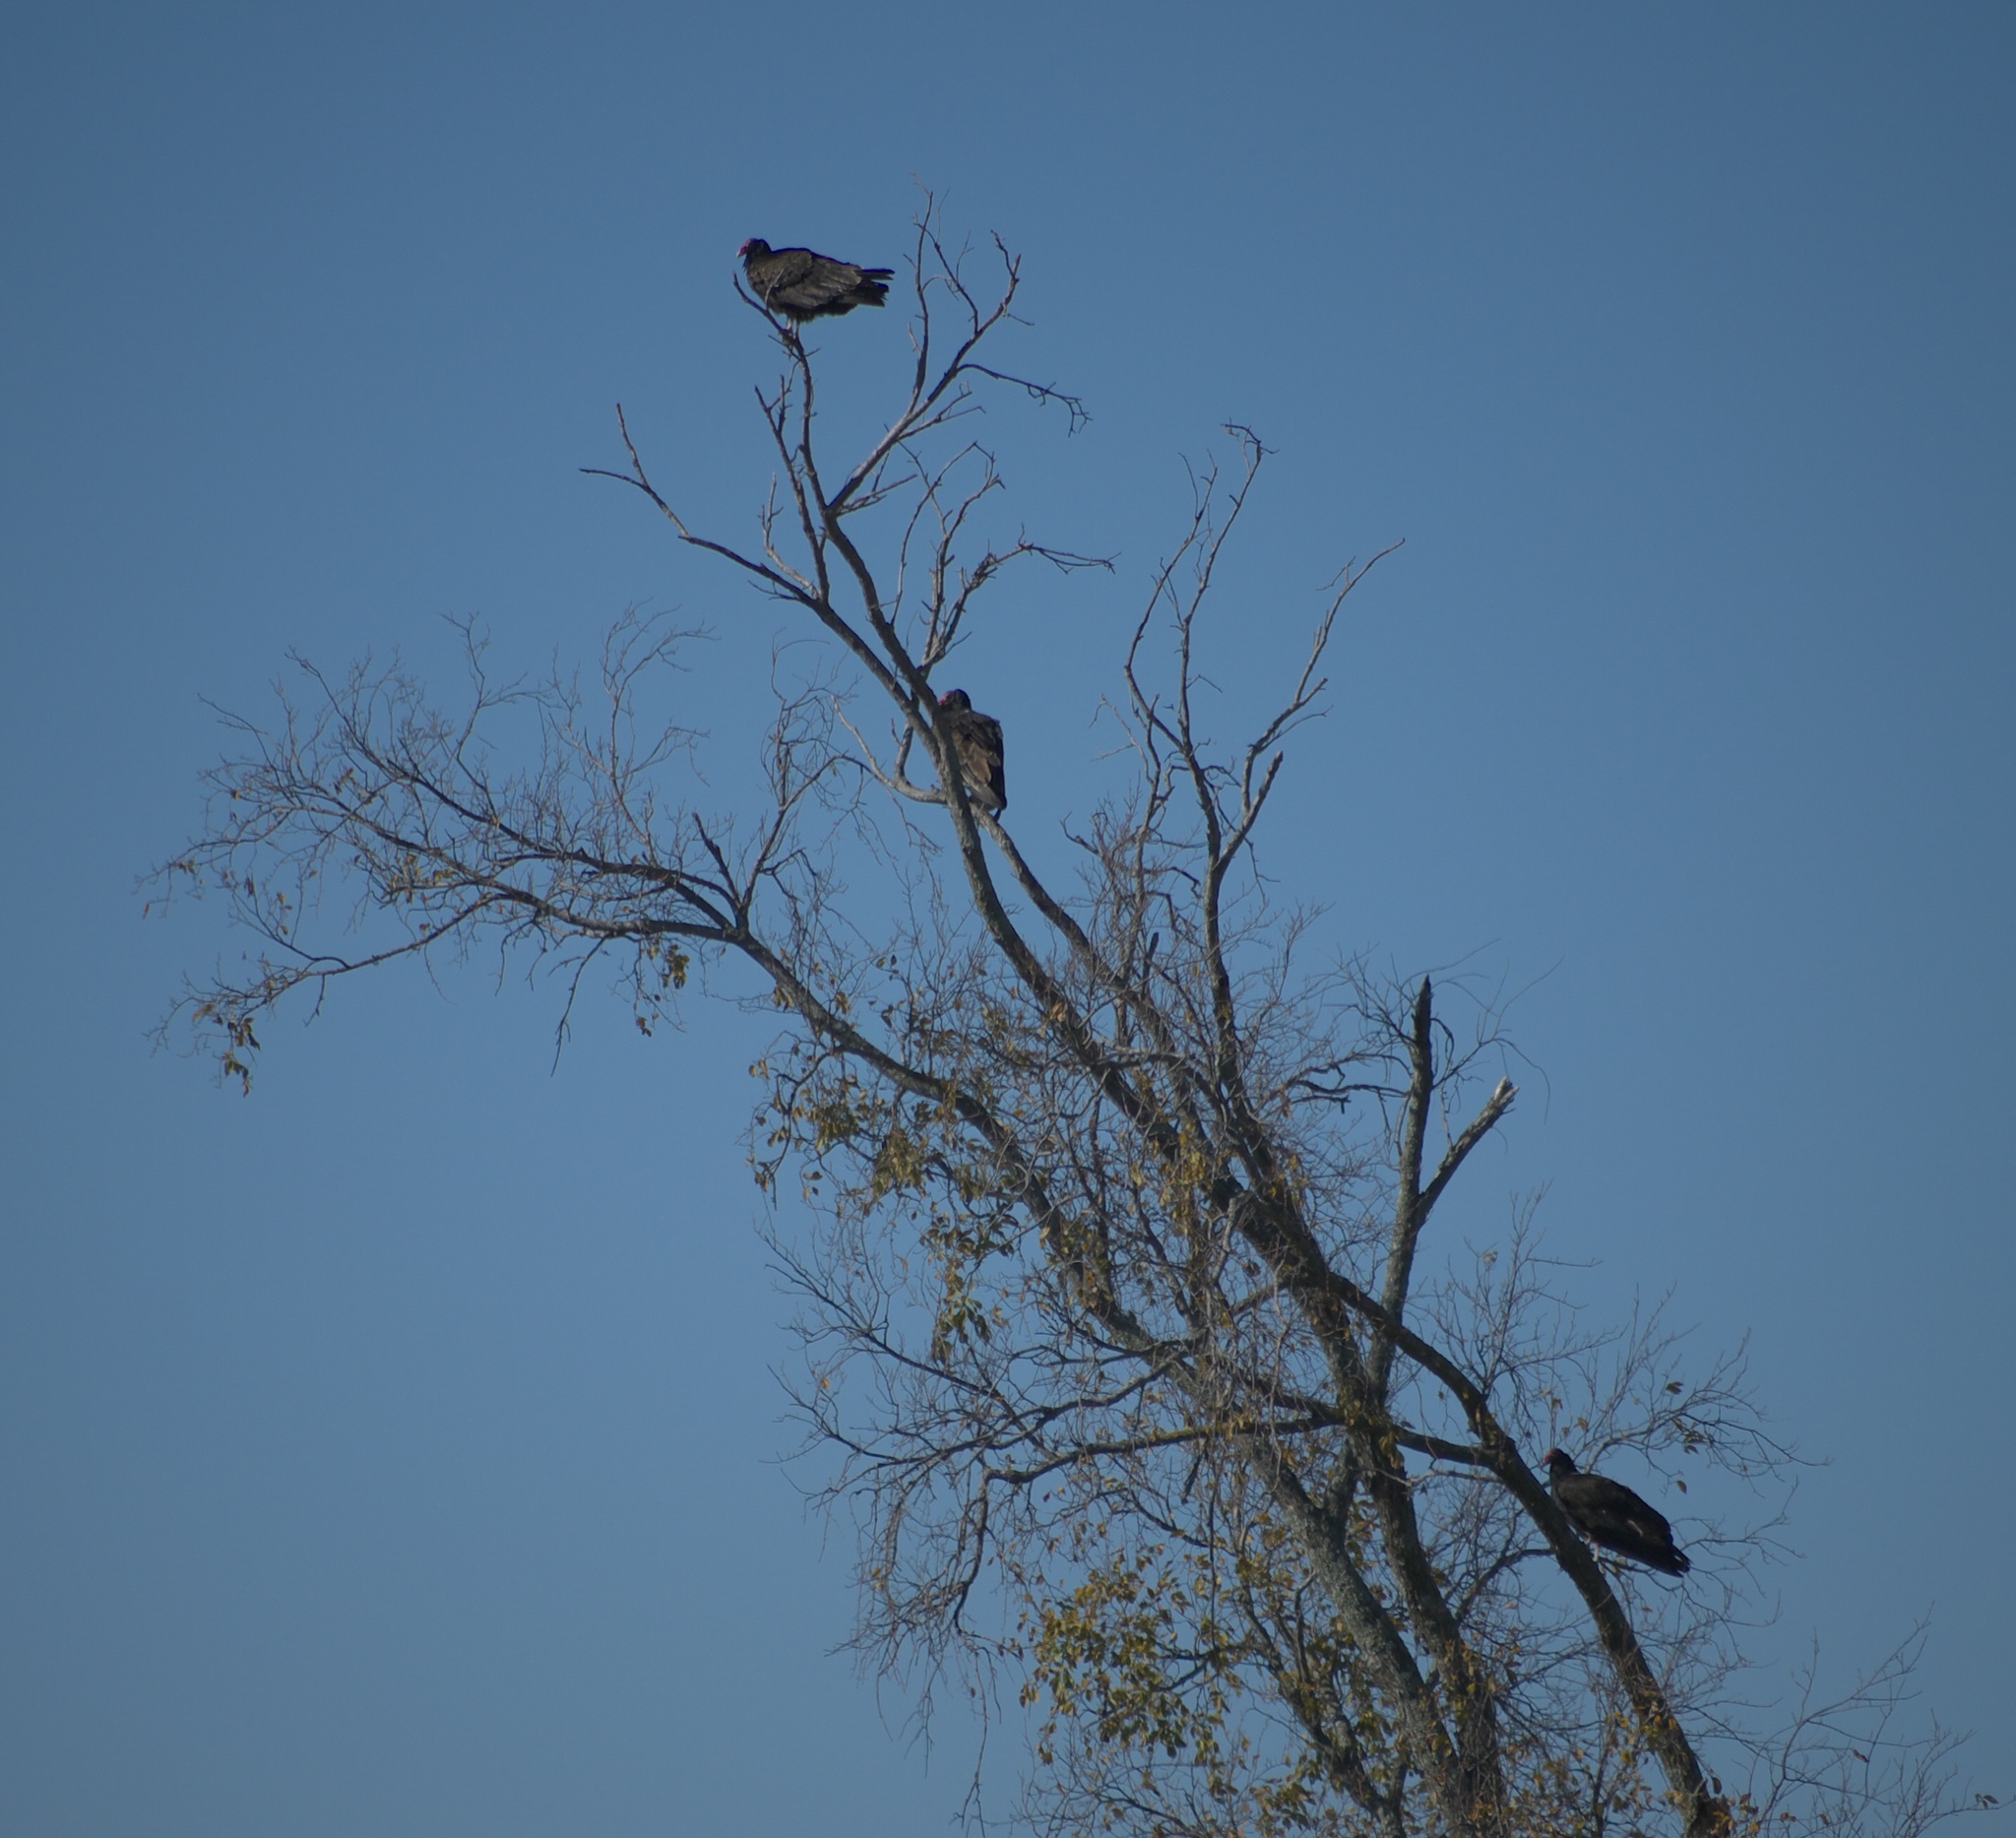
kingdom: Animalia
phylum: Chordata
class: Aves
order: Accipitriformes
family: Cathartidae
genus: Cathartes
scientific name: Cathartes aura
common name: Turkey vulture
